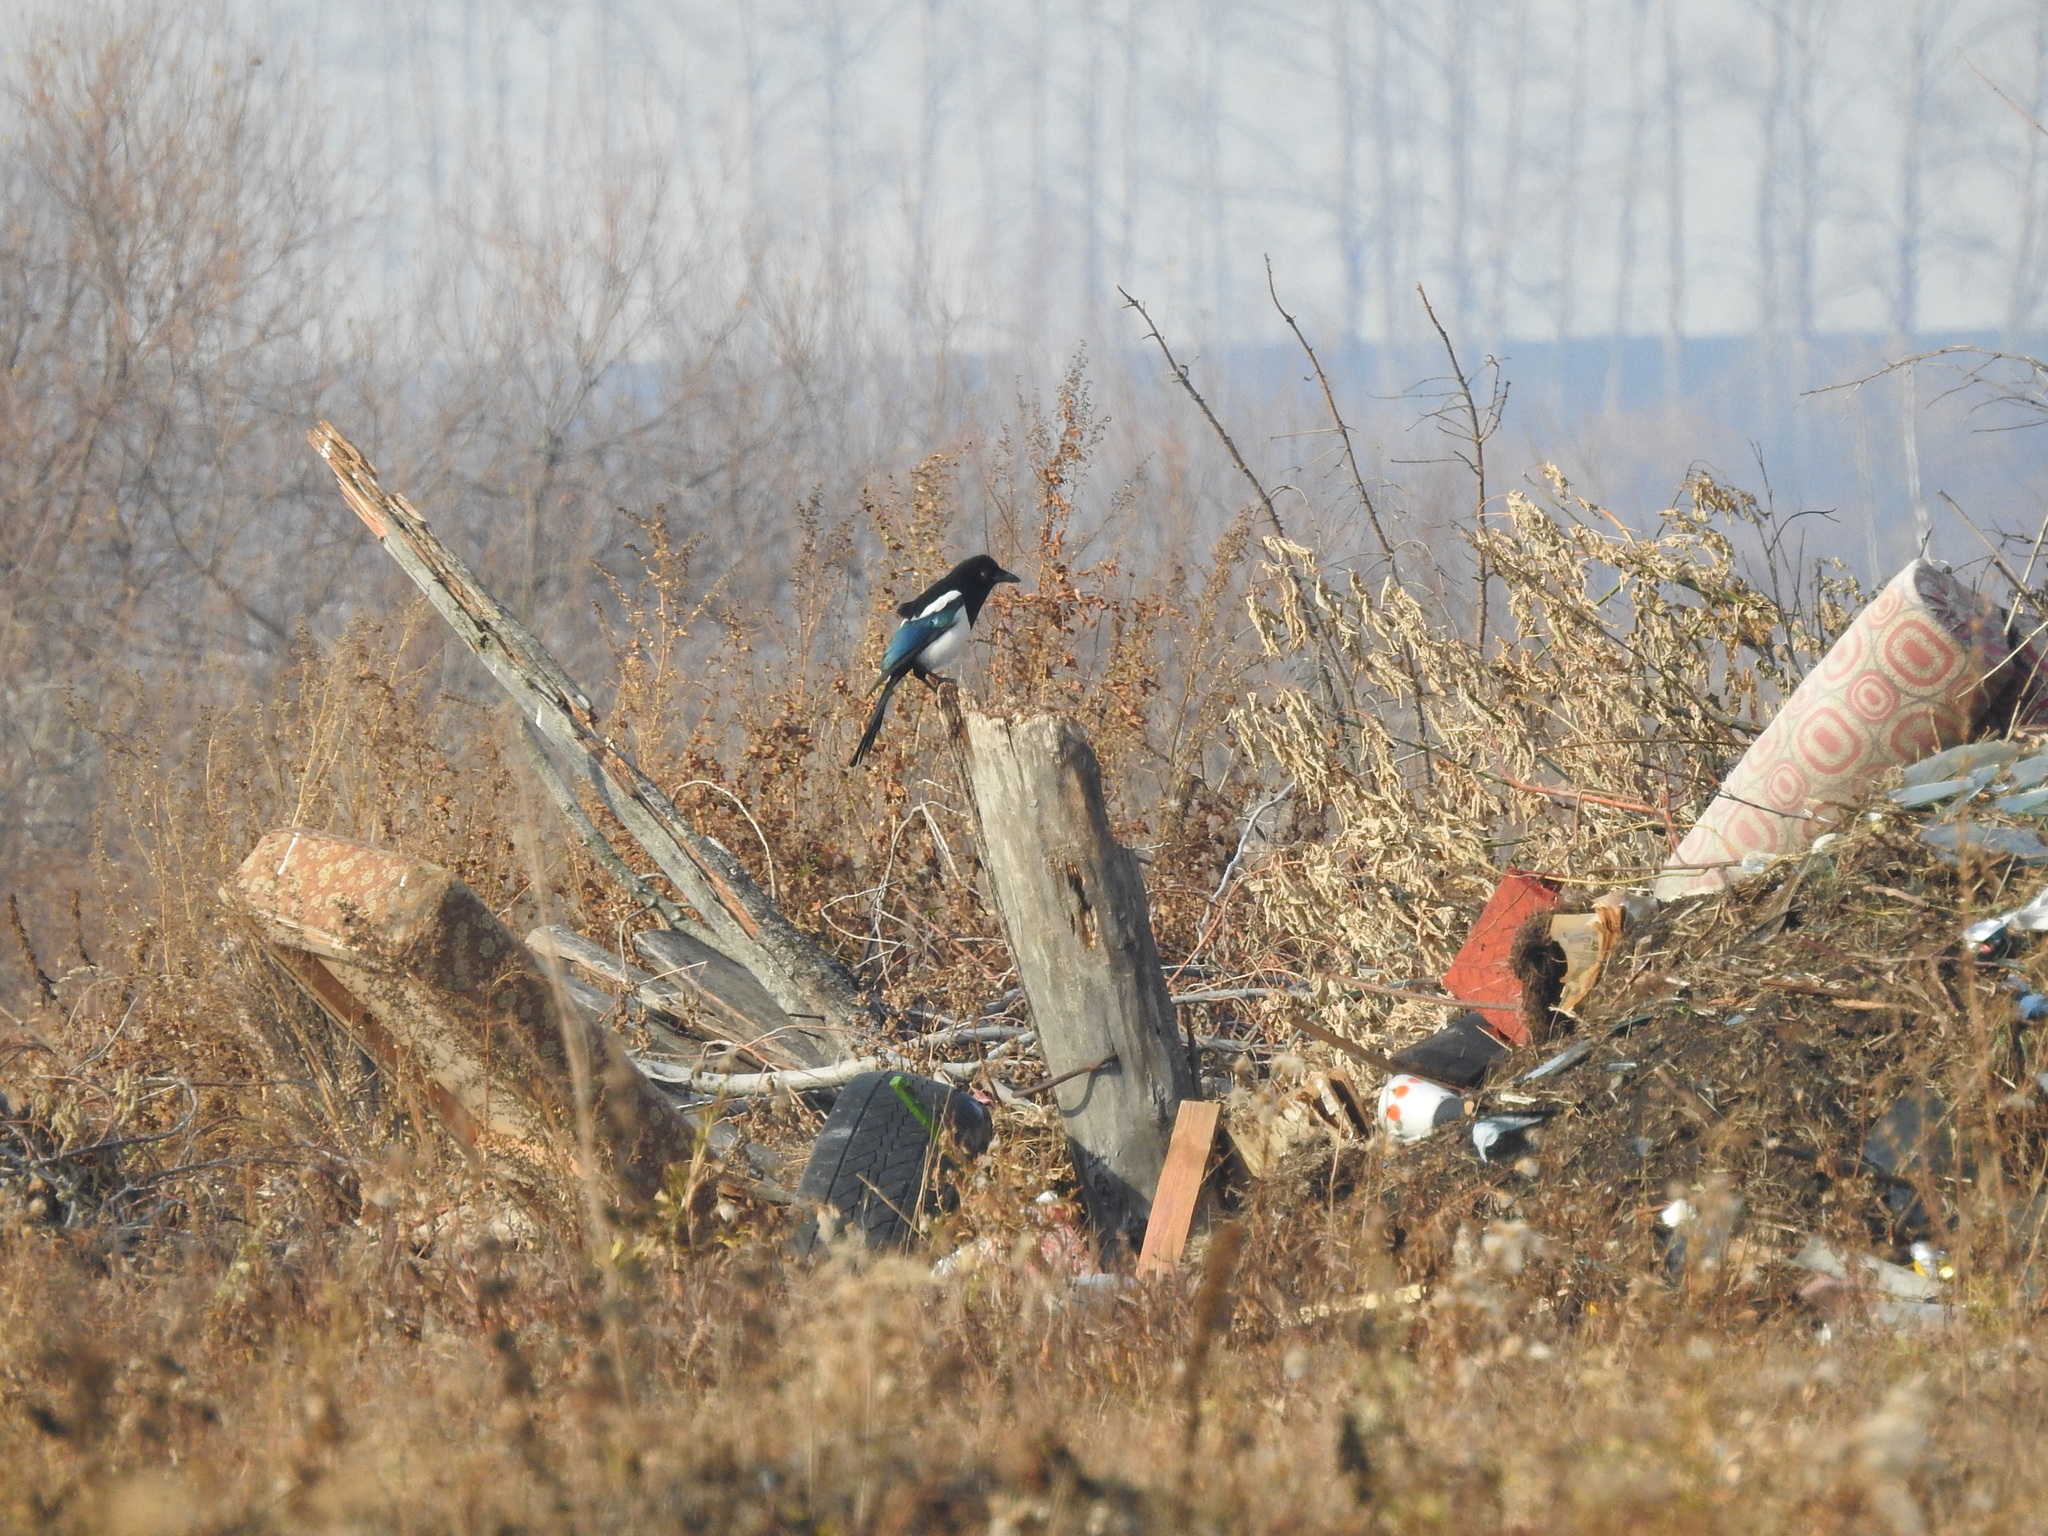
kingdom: Animalia
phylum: Chordata
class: Aves
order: Passeriformes
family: Corvidae
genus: Pica
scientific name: Pica pica
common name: Eurasian magpie
